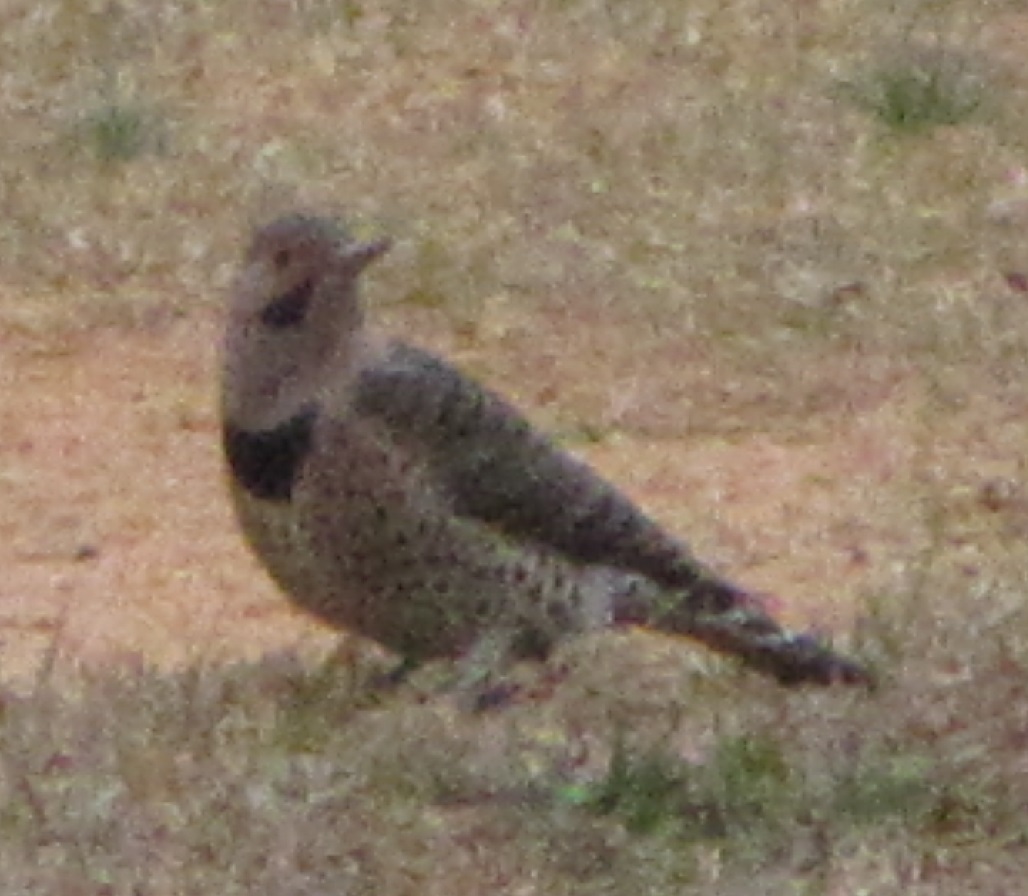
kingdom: Animalia
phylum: Chordata
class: Aves
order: Piciformes
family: Picidae
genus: Colaptes
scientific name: Colaptes auratus
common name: Northern flicker
